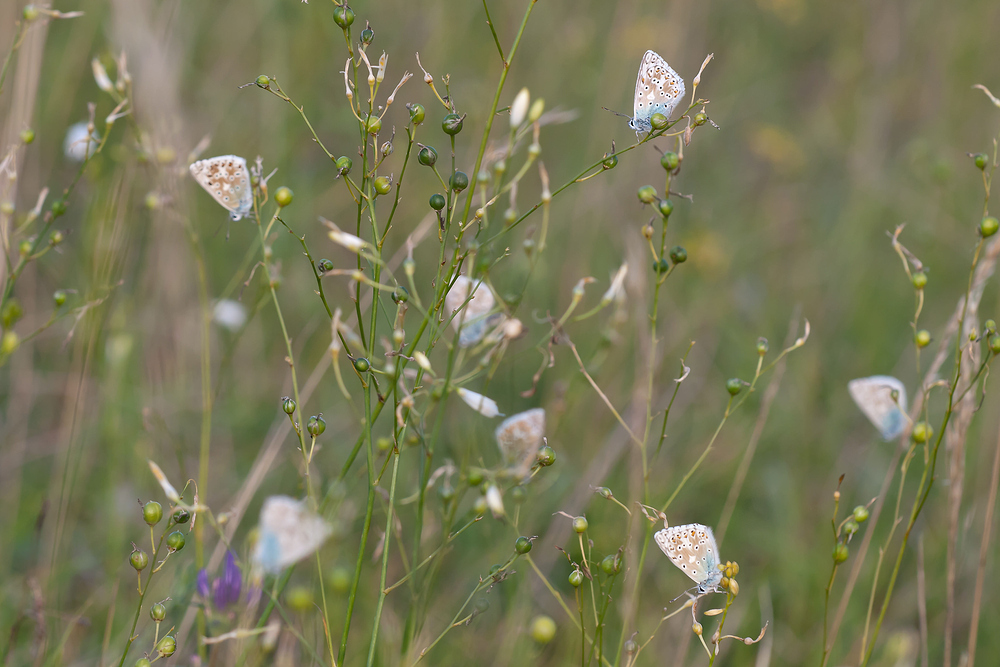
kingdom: Animalia
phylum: Arthropoda
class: Insecta
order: Lepidoptera
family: Lycaenidae
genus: Lysandra
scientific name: Lysandra coridon
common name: Chalkhill blue
